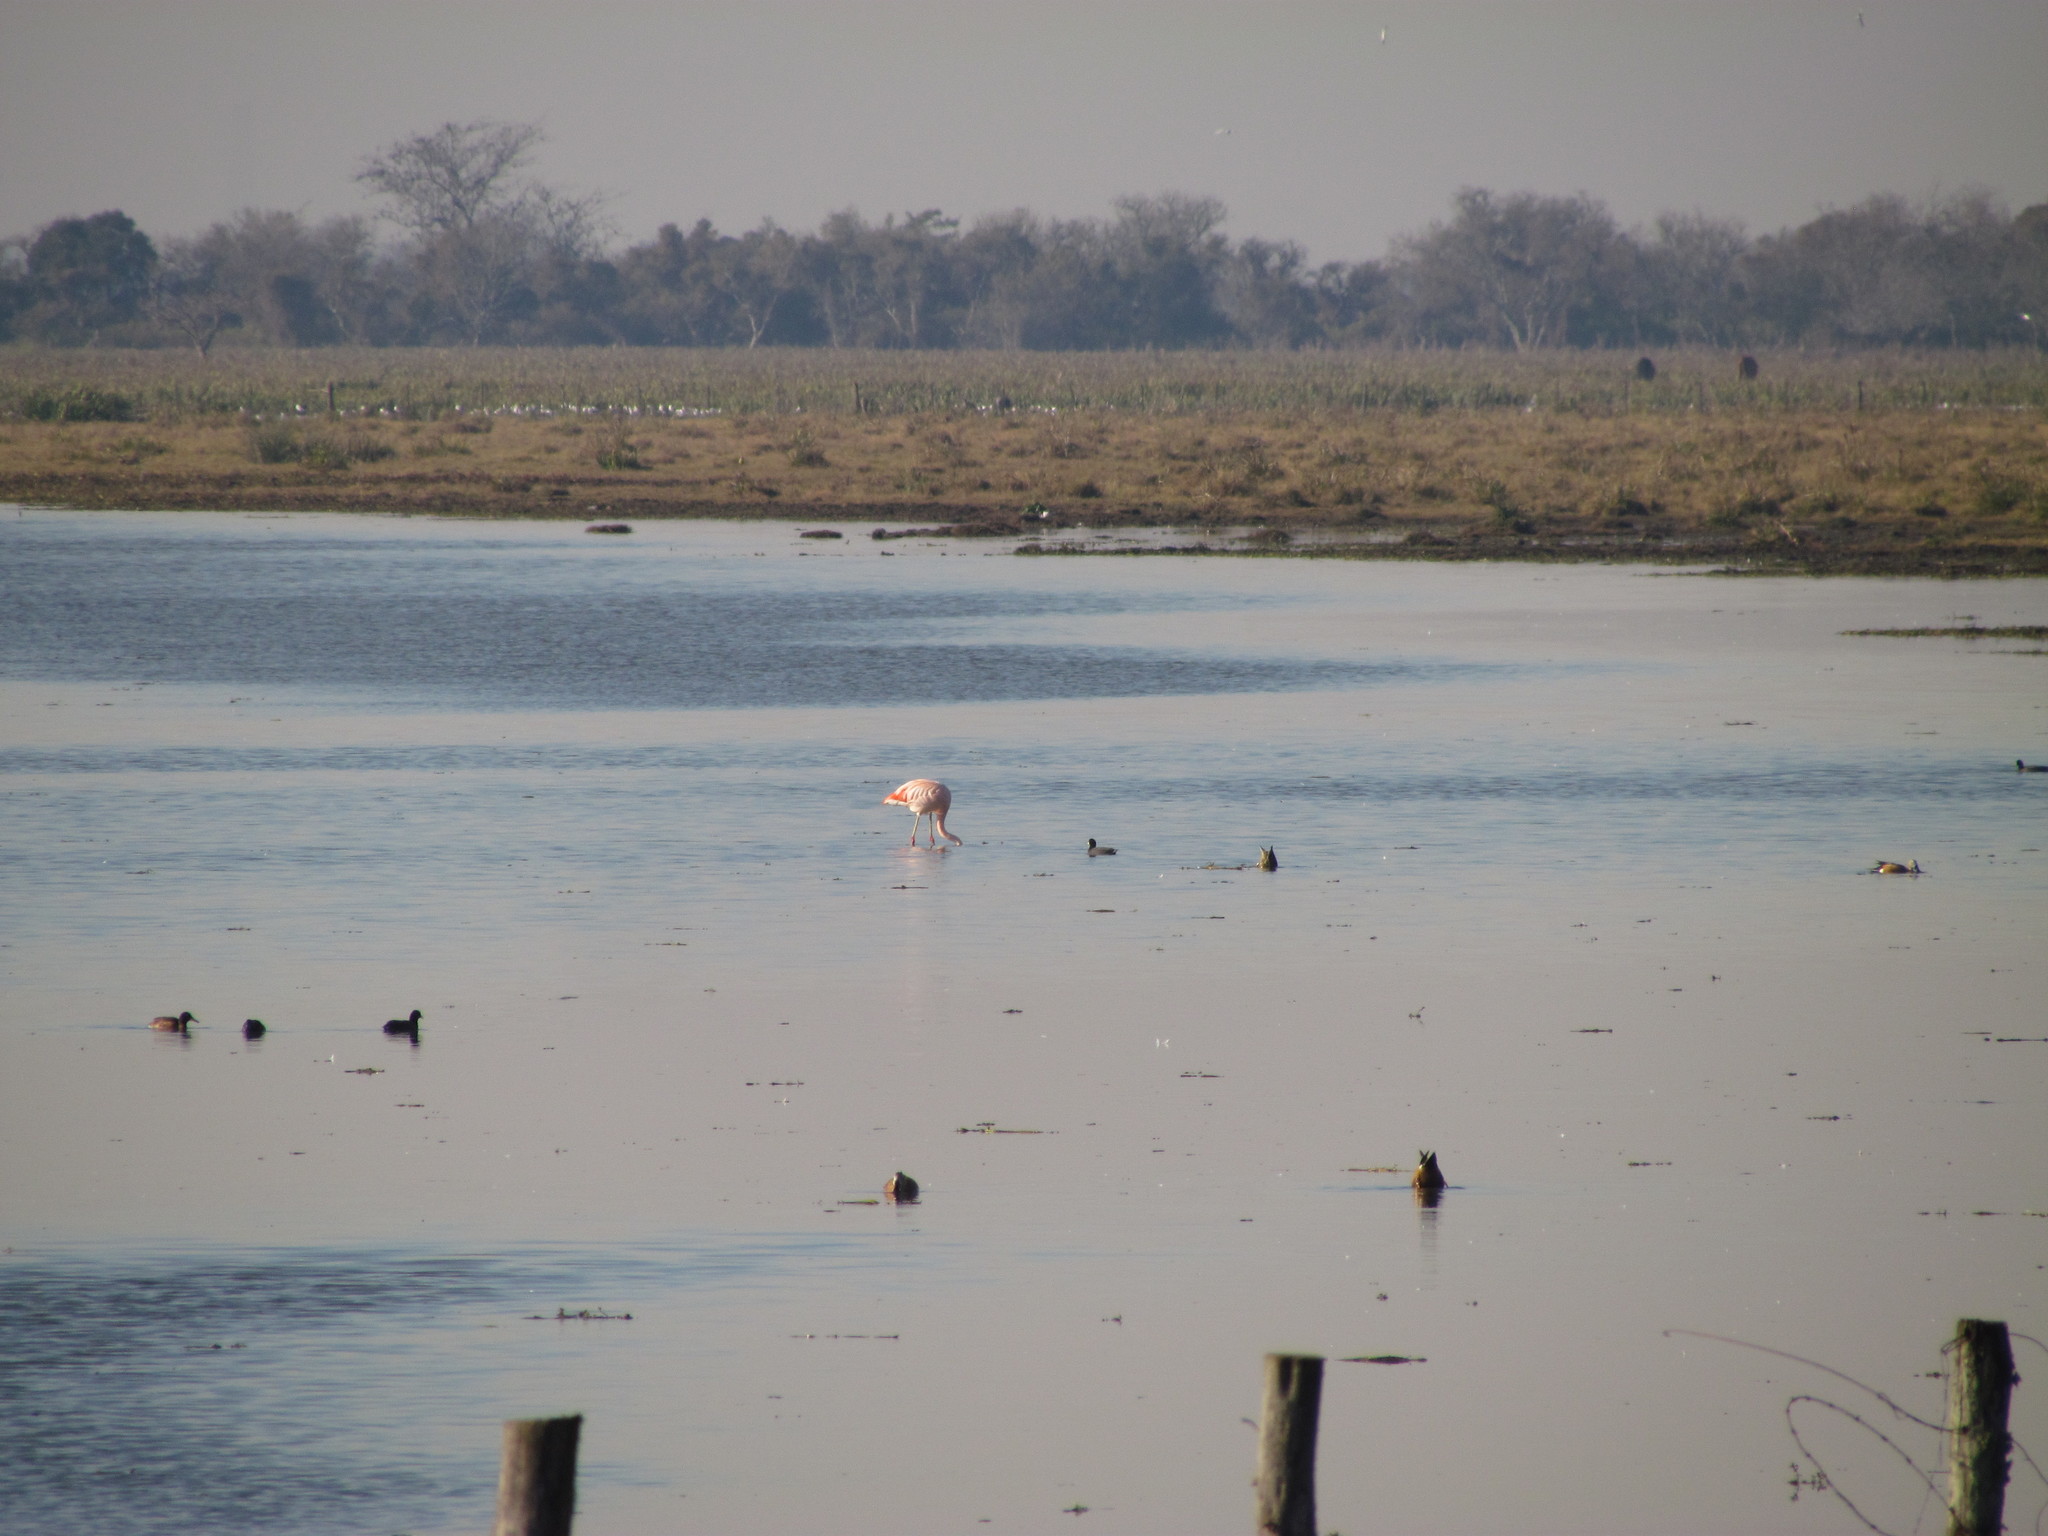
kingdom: Animalia
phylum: Chordata
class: Aves
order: Phoenicopteriformes
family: Phoenicopteridae
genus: Phoenicopterus
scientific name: Phoenicopterus chilensis
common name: Chilean flamingo
